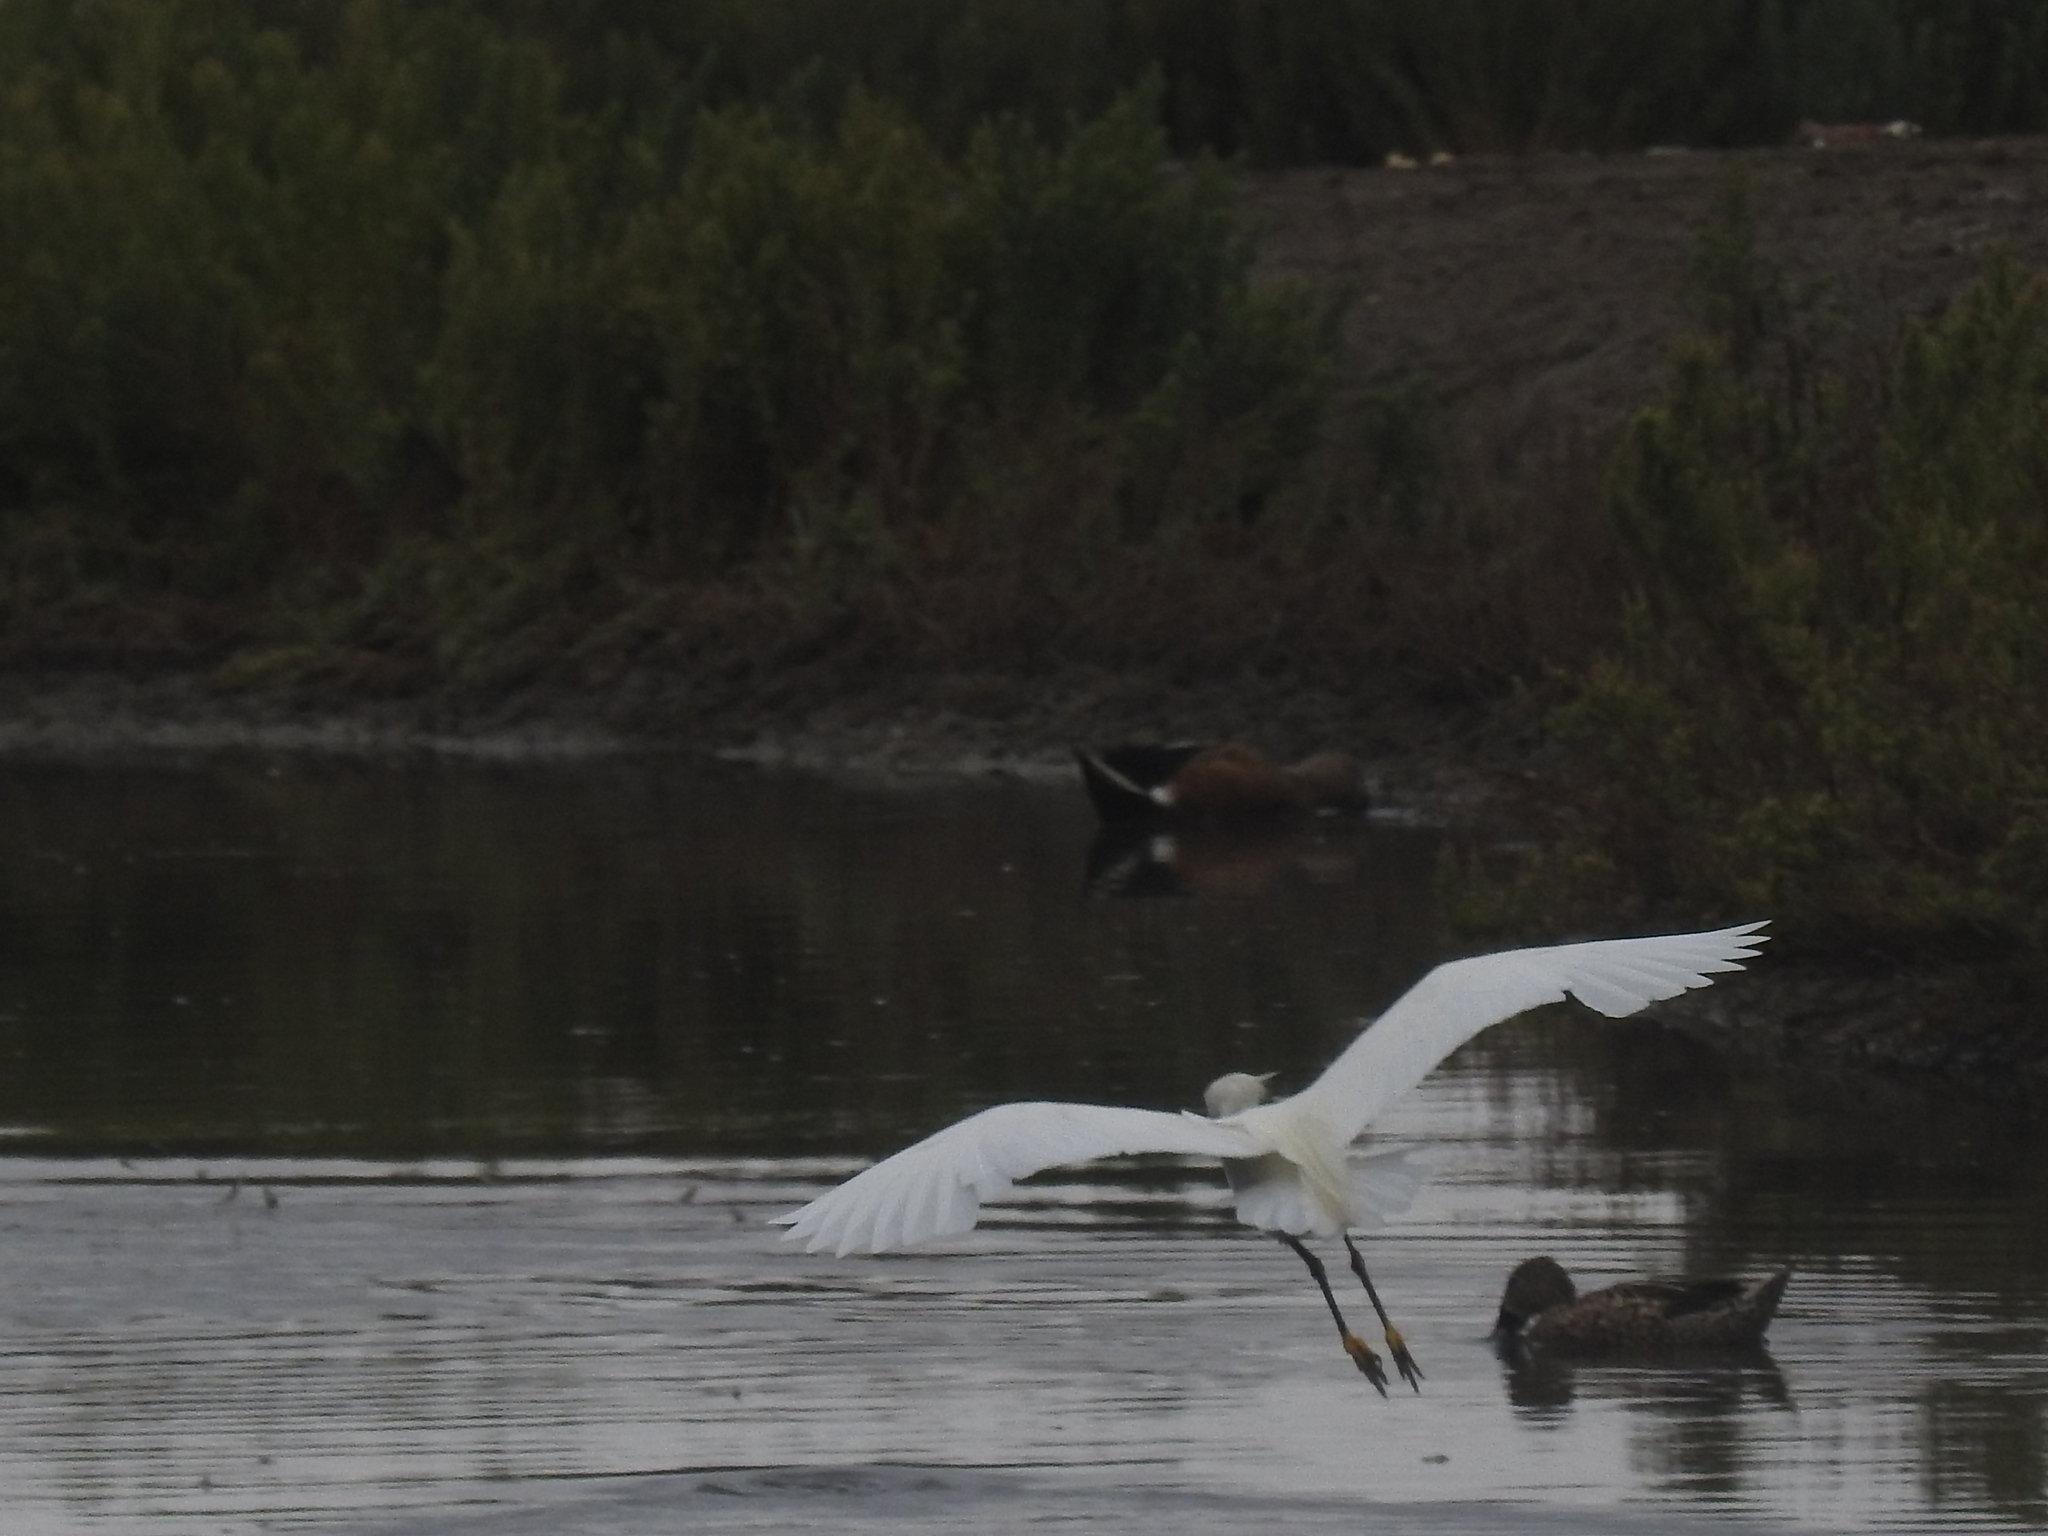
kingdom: Animalia
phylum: Chordata
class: Aves
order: Pelecaniformes
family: Ardeidae
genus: Egretta
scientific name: Egretta thula
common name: Snowy egret
